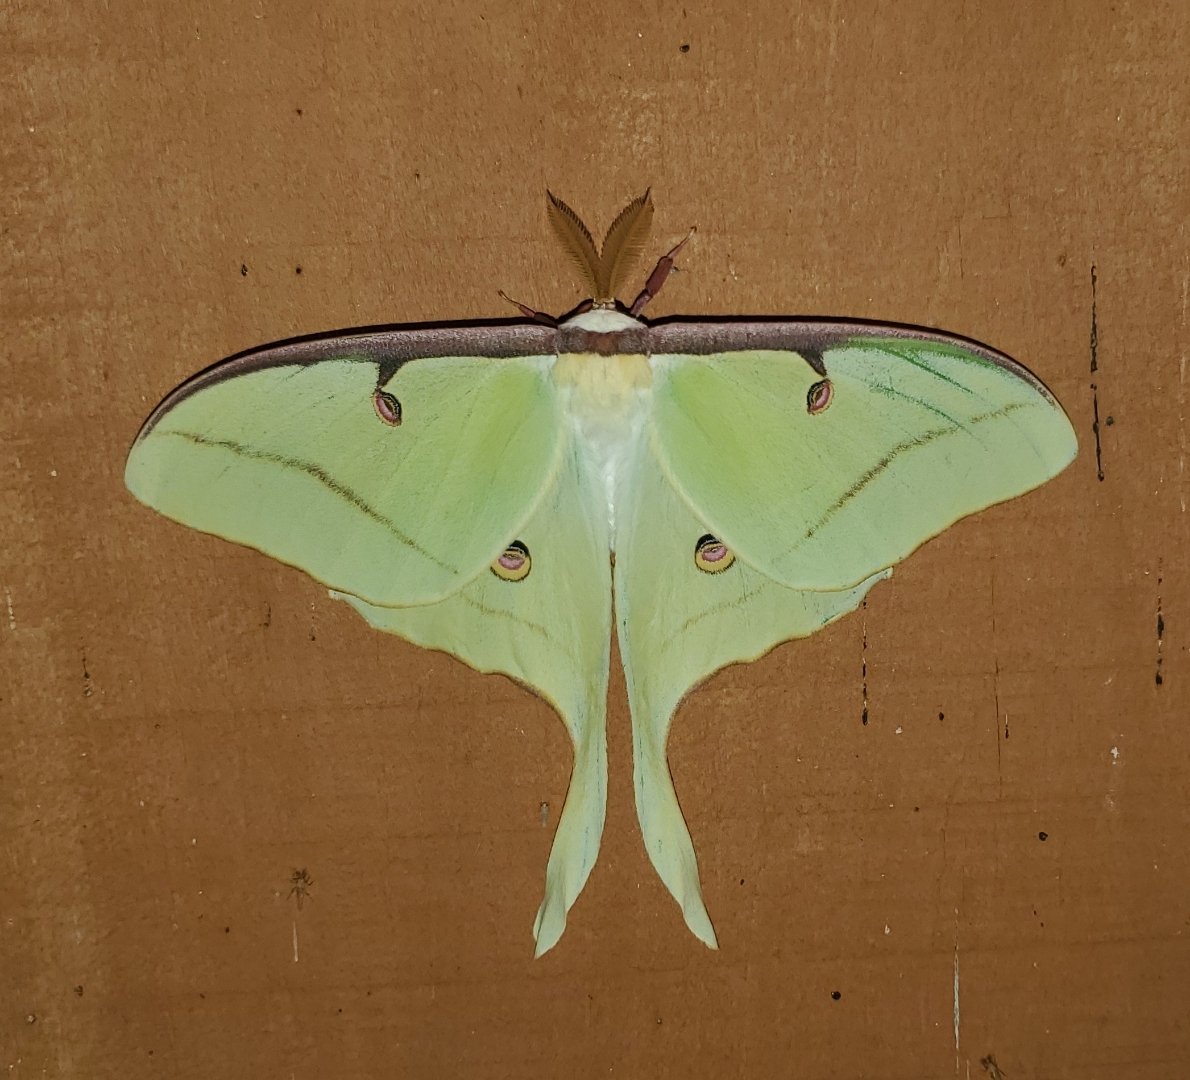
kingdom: Animalia
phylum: Arthropoda
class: Insecta
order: Lepidoptera
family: Saturniidae
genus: Actias
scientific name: Actias luna
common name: Luna moth
